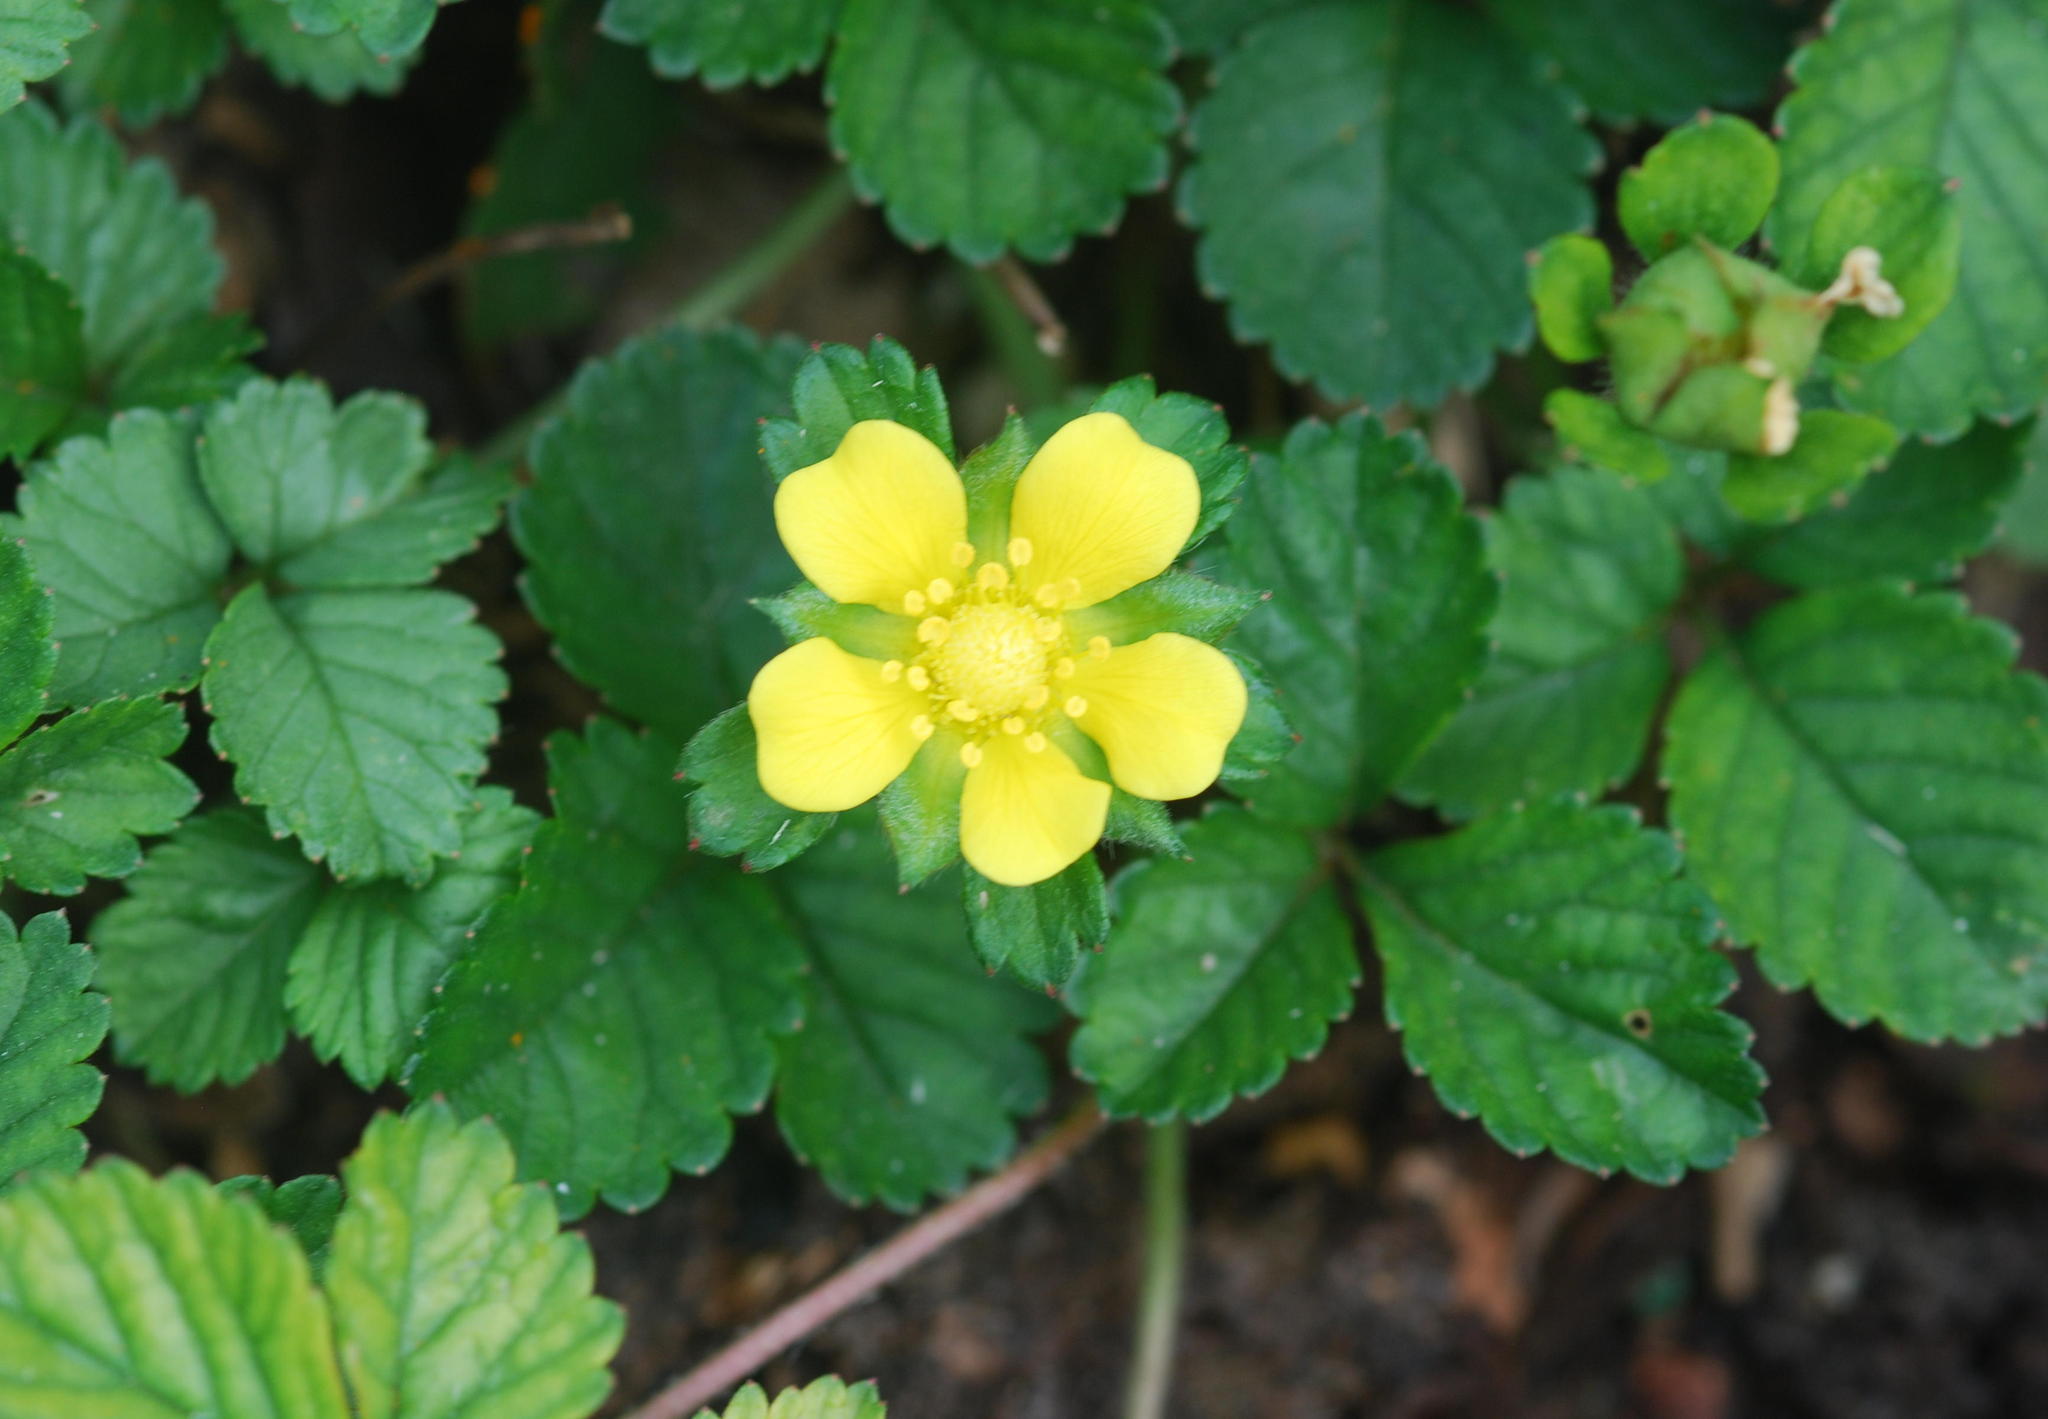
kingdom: Plantae
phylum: Tracheophyta
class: Magnoliopsida
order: Rosales
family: Rosaceae
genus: Potentilla
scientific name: Potentilla indica
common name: Yellow-flowered strawberry
